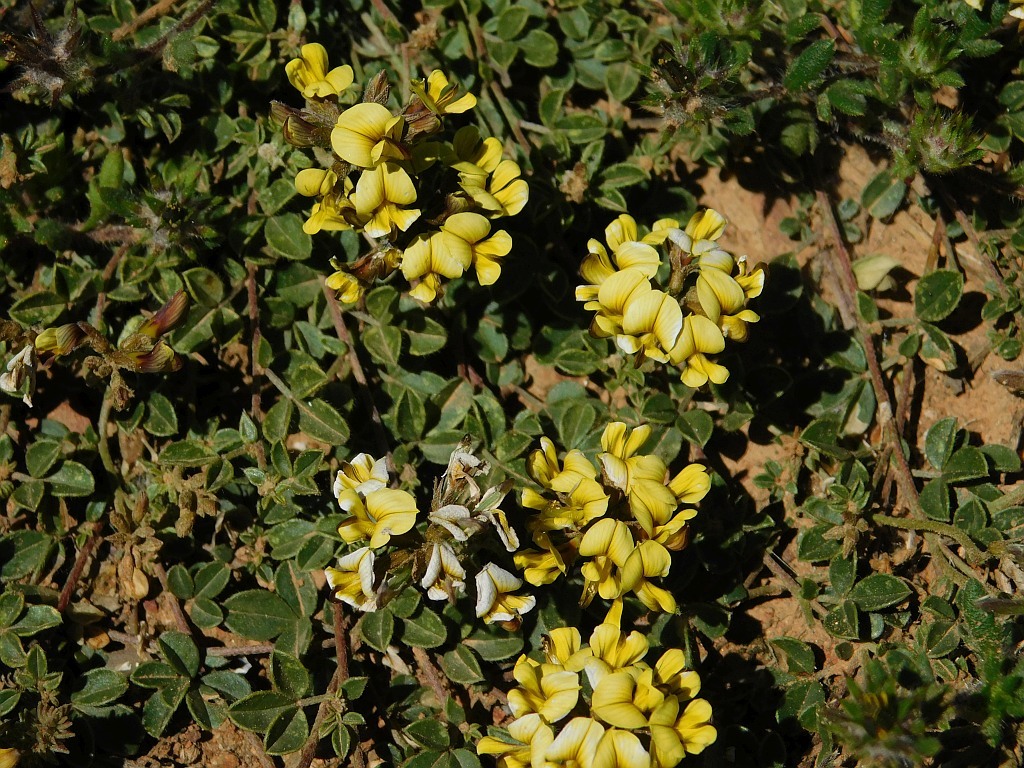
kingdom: Plantae
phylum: Tracheophyta
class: Magnoliopsida
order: Fabales
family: Fabaceae
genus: Lotononis
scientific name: Lotononis umbellata
